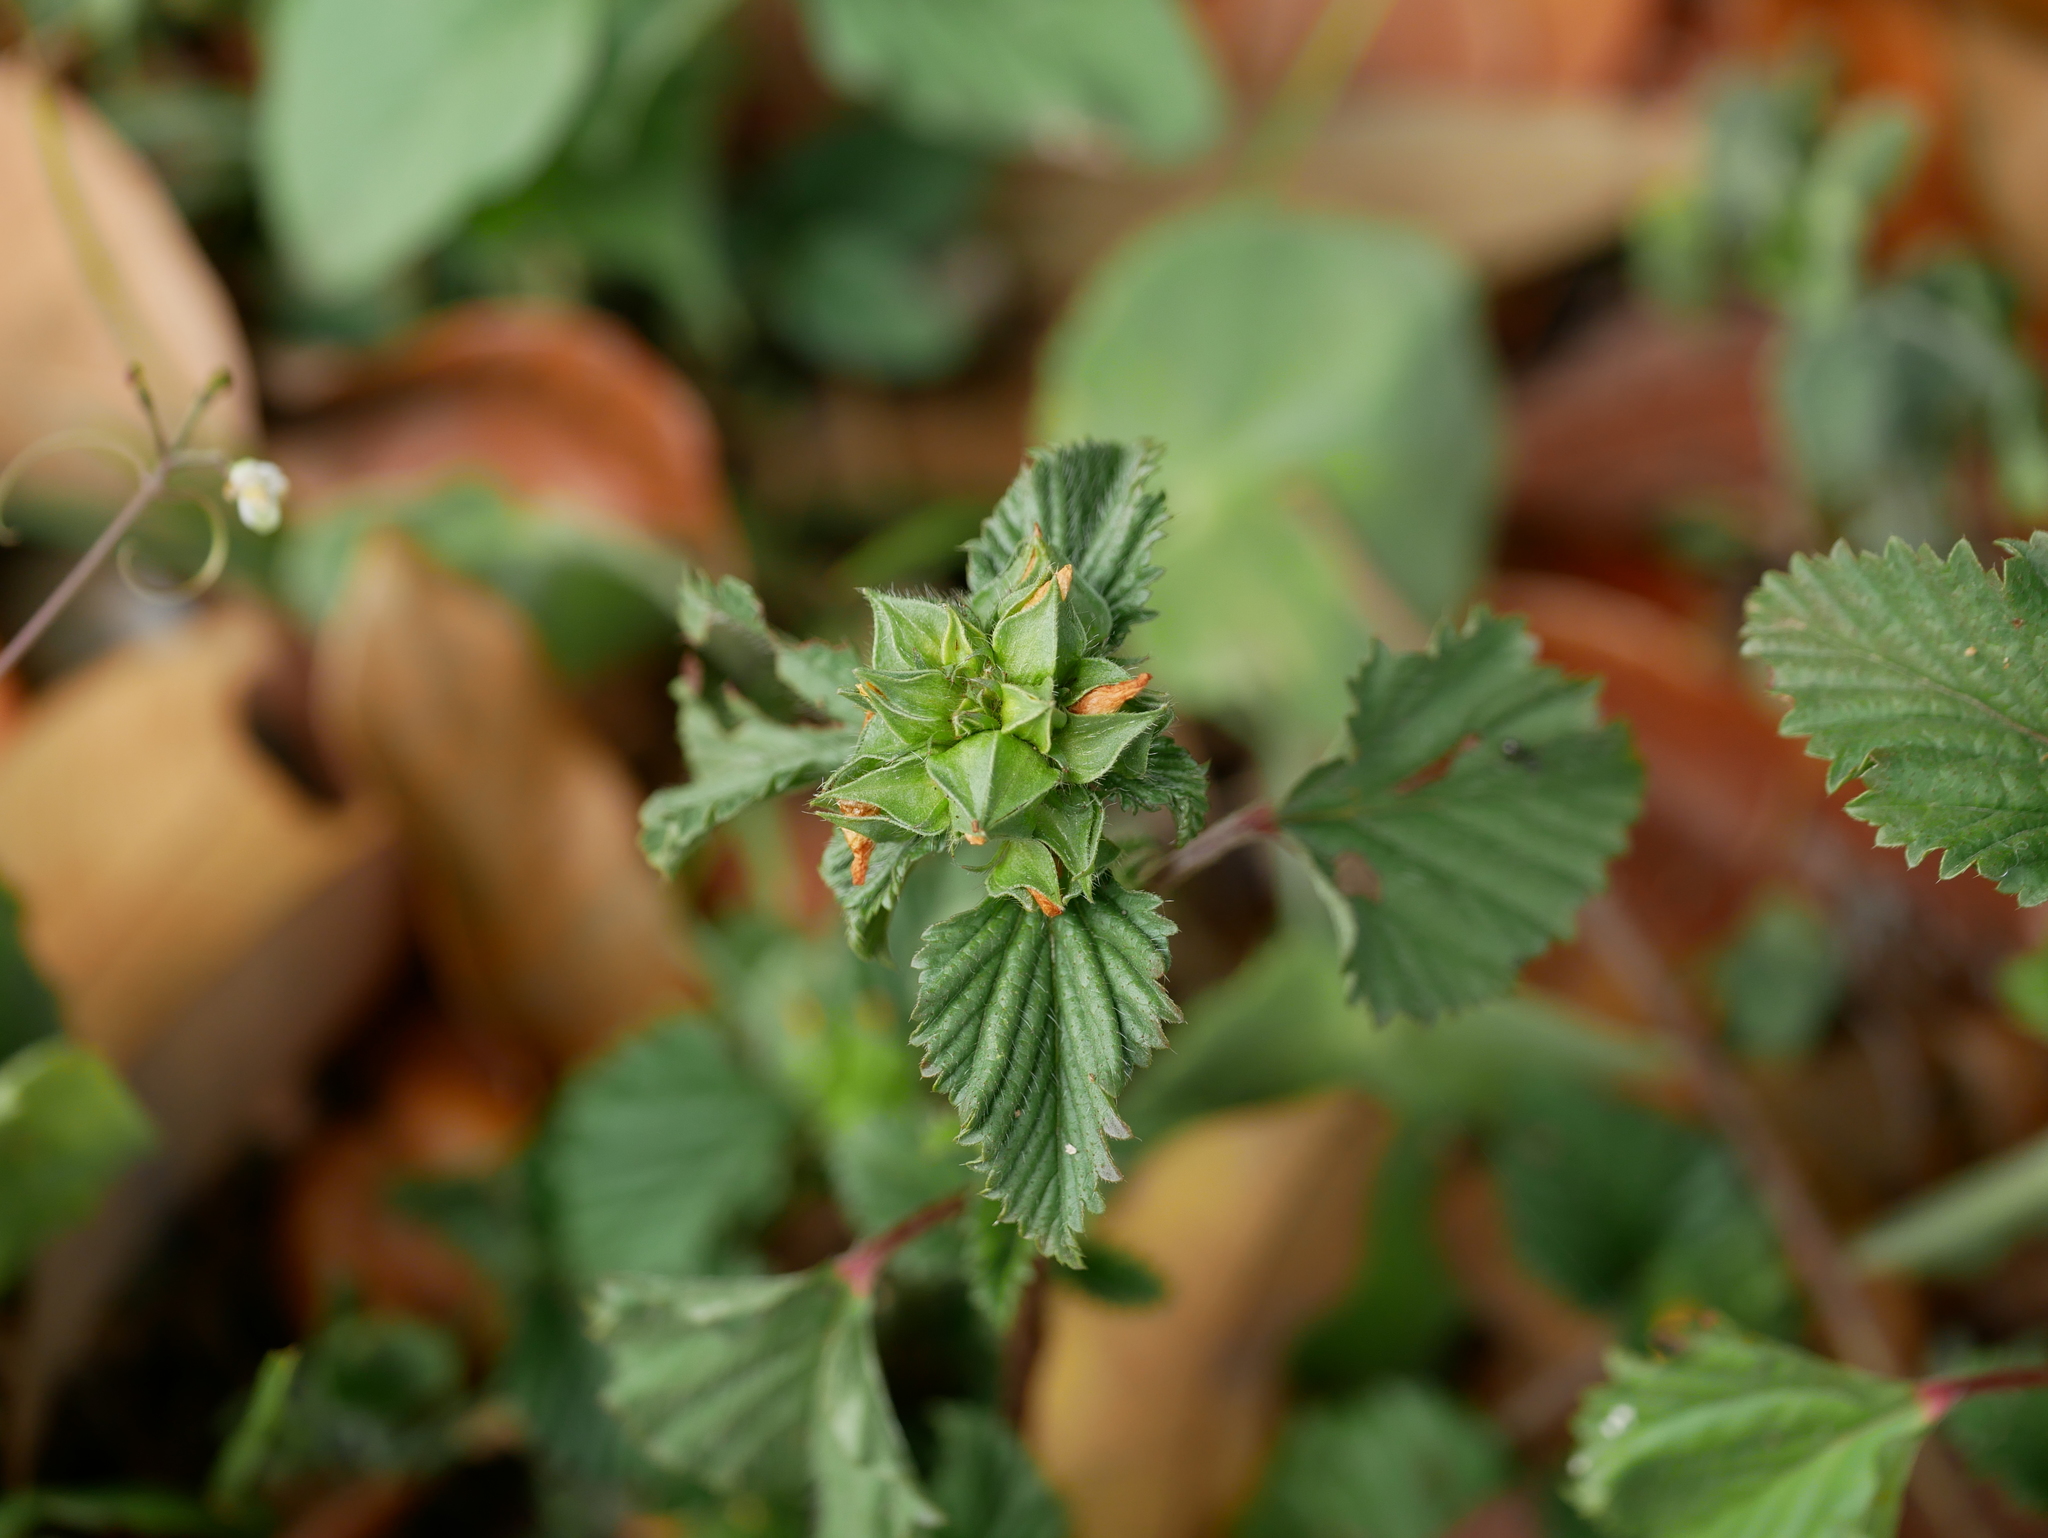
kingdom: Plantae
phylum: Tracheophyta
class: Magnoliopsida
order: Malvales
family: Malvaceae
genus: Malvastrum
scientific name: Malvastrum coromandelianum
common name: Threelobe false mallow
